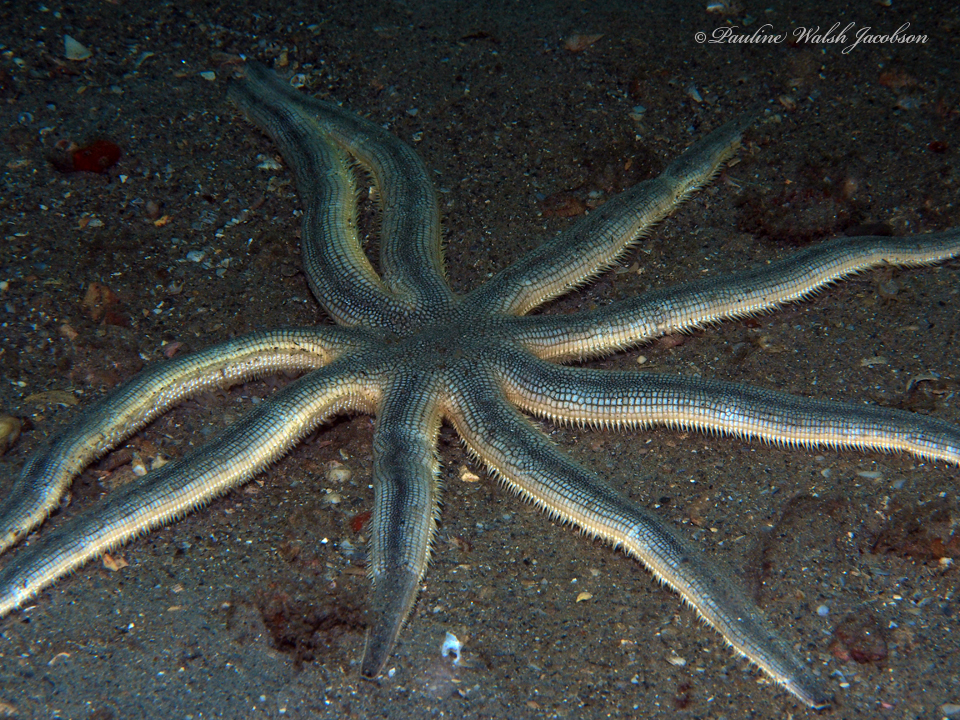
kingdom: Animalia
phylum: Echinodermata
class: Asteroidea
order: Paxillosida
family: Luidiidae
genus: Luidia
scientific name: Luidia senegalensis
